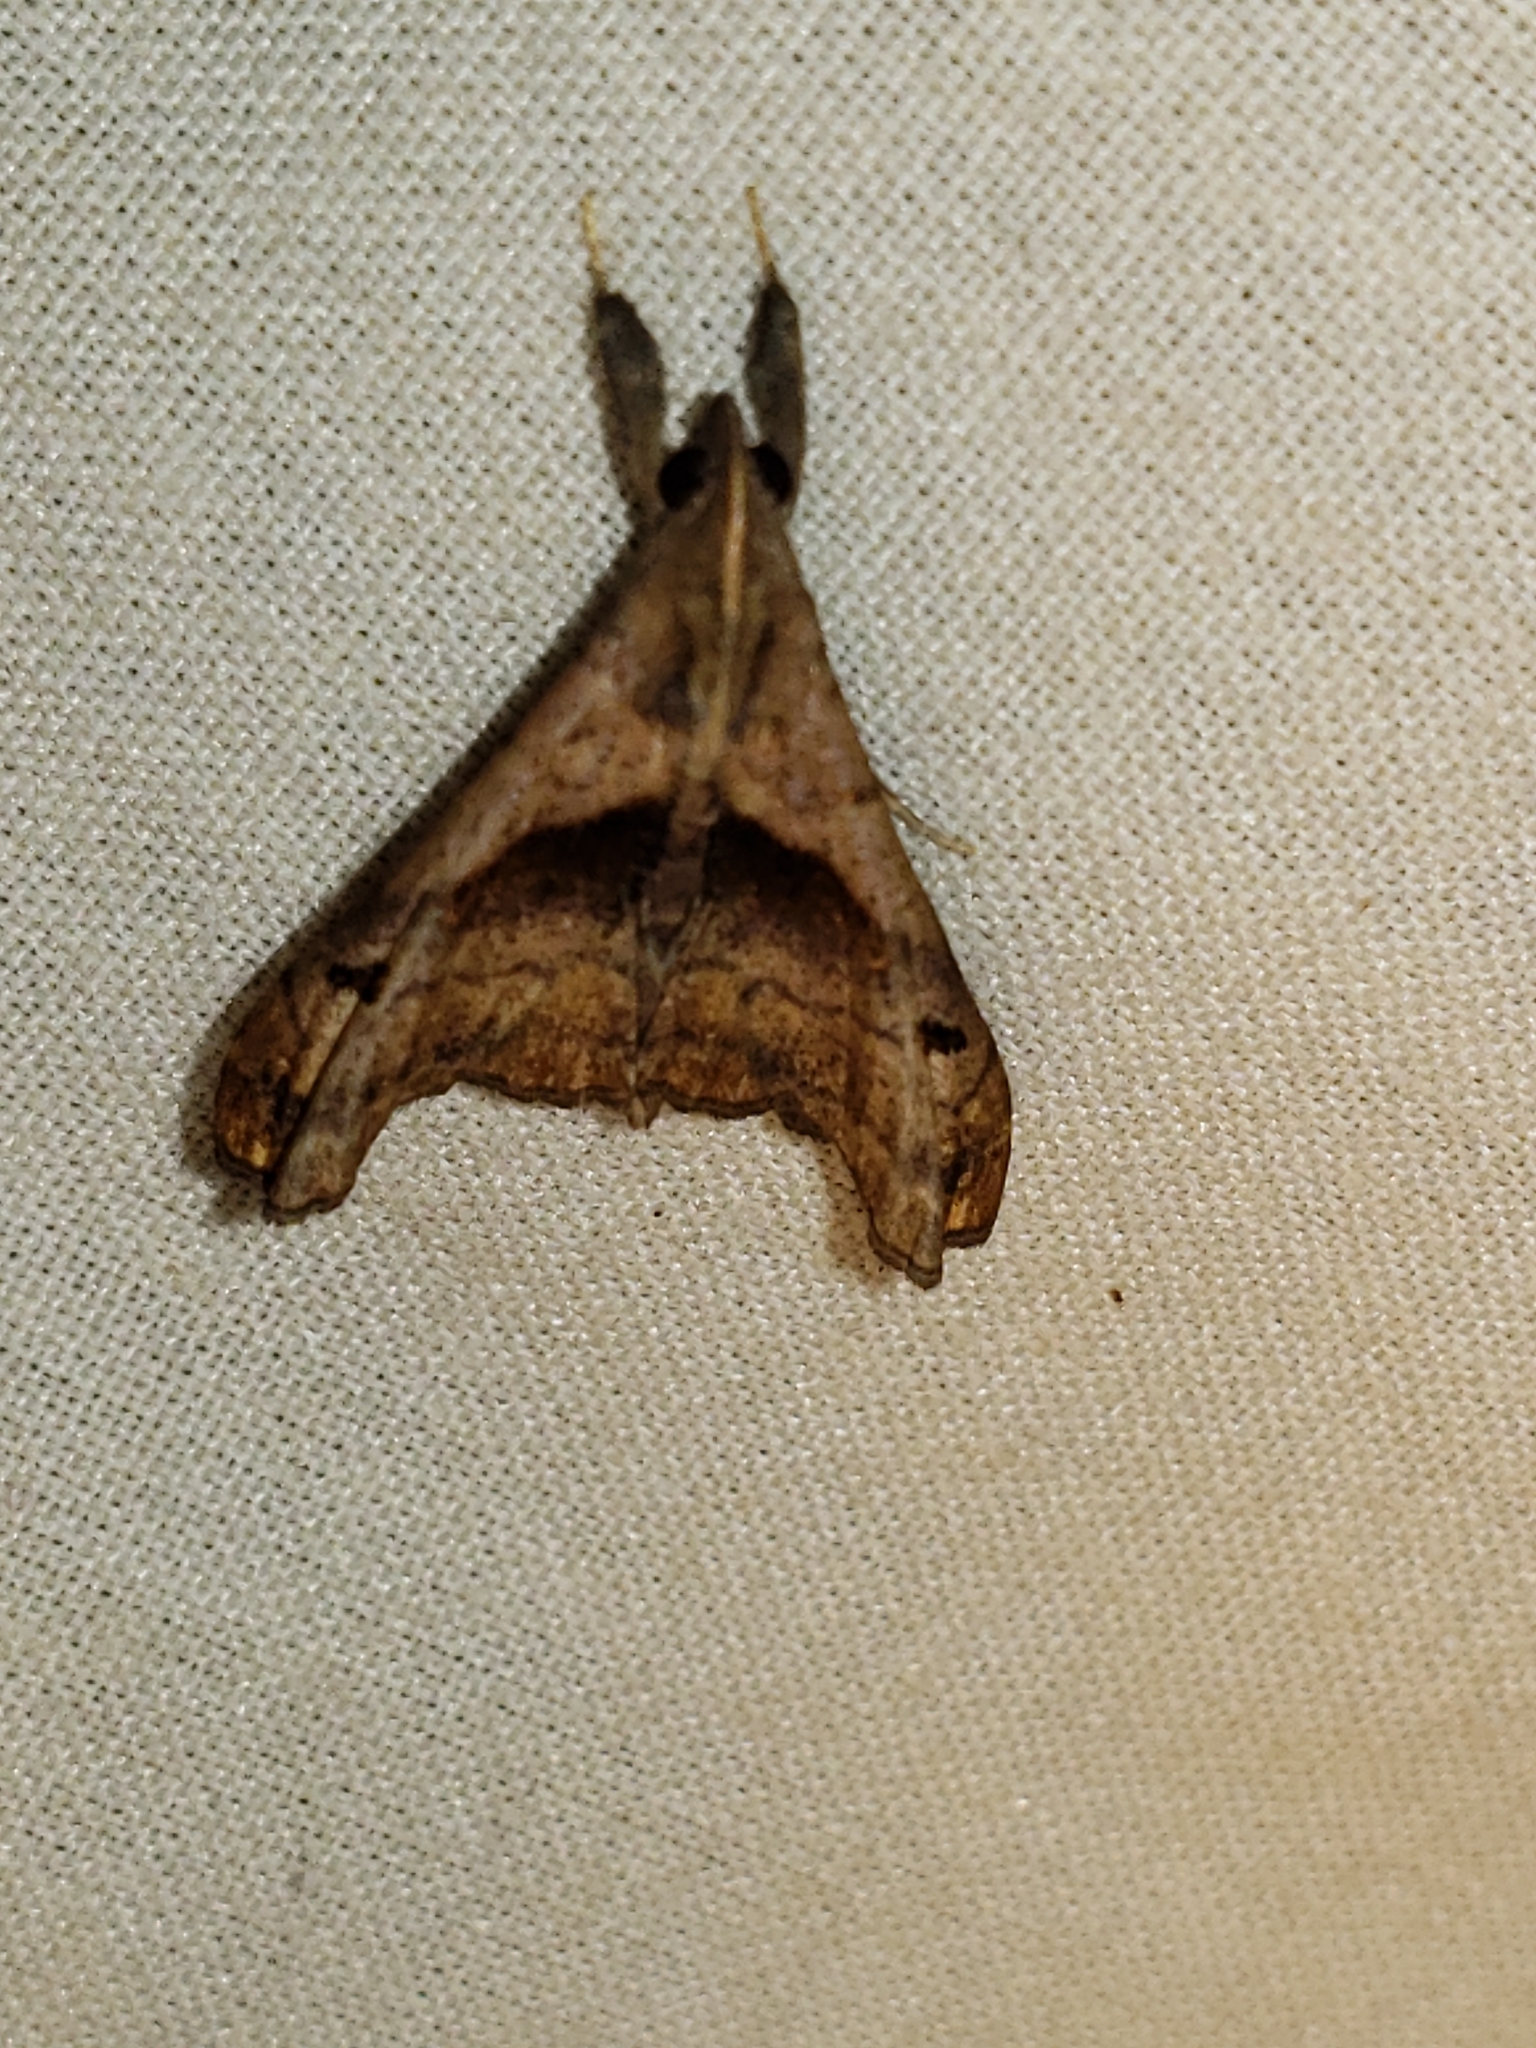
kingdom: Animalia
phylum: Arthropoda
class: Insecta
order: Lepidoptera
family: Erebidae
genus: Palthis
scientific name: Palthis angulalis
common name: Dark-spotted palthis moth
